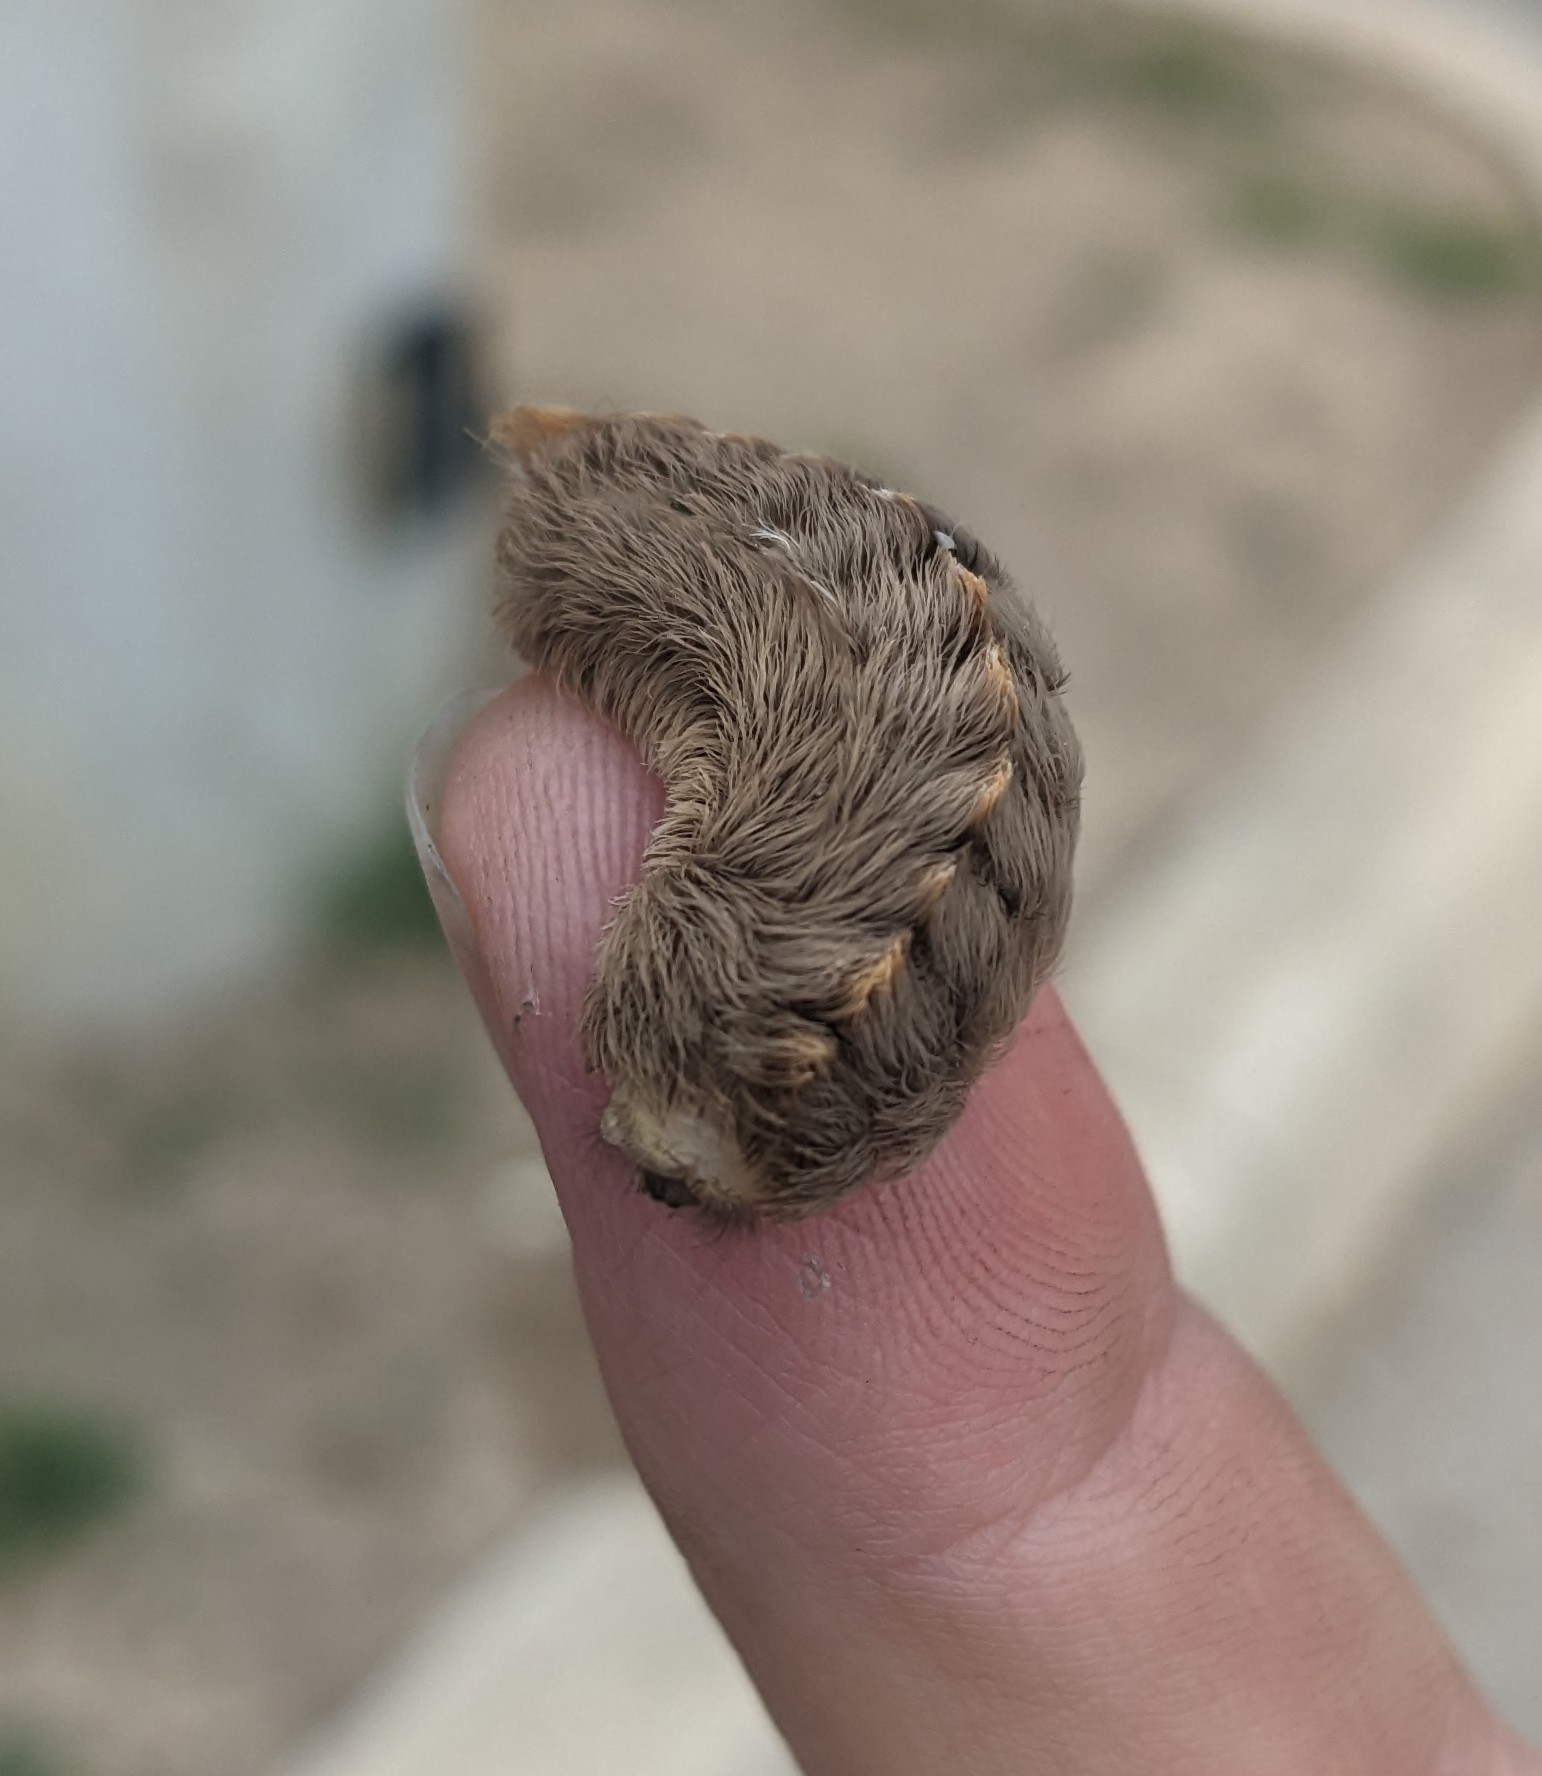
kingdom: Animalia
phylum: Arthropoda
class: Insecta
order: Lepidoptera
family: Megalopygidae
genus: Megalopyge
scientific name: Megalopyge opercularis
